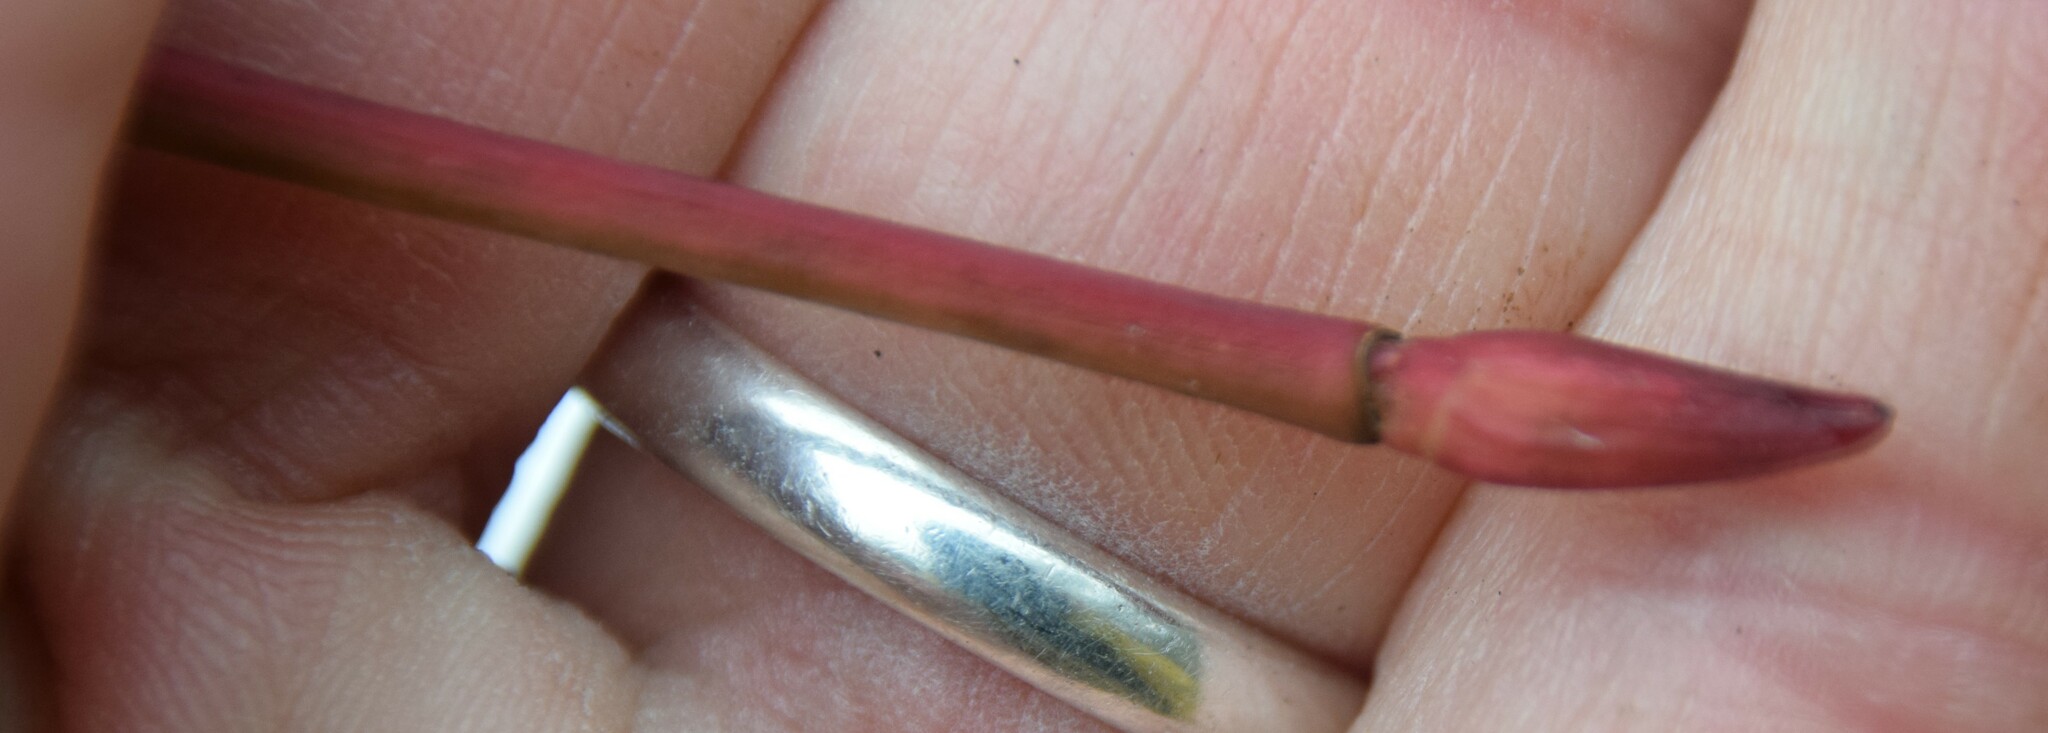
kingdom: Plantae
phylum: Tracheophyta
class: Magnoliopsida
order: Sapindales
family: Sapindaceae
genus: Acer
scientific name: Acer pensylvanicum
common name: Moosewood
